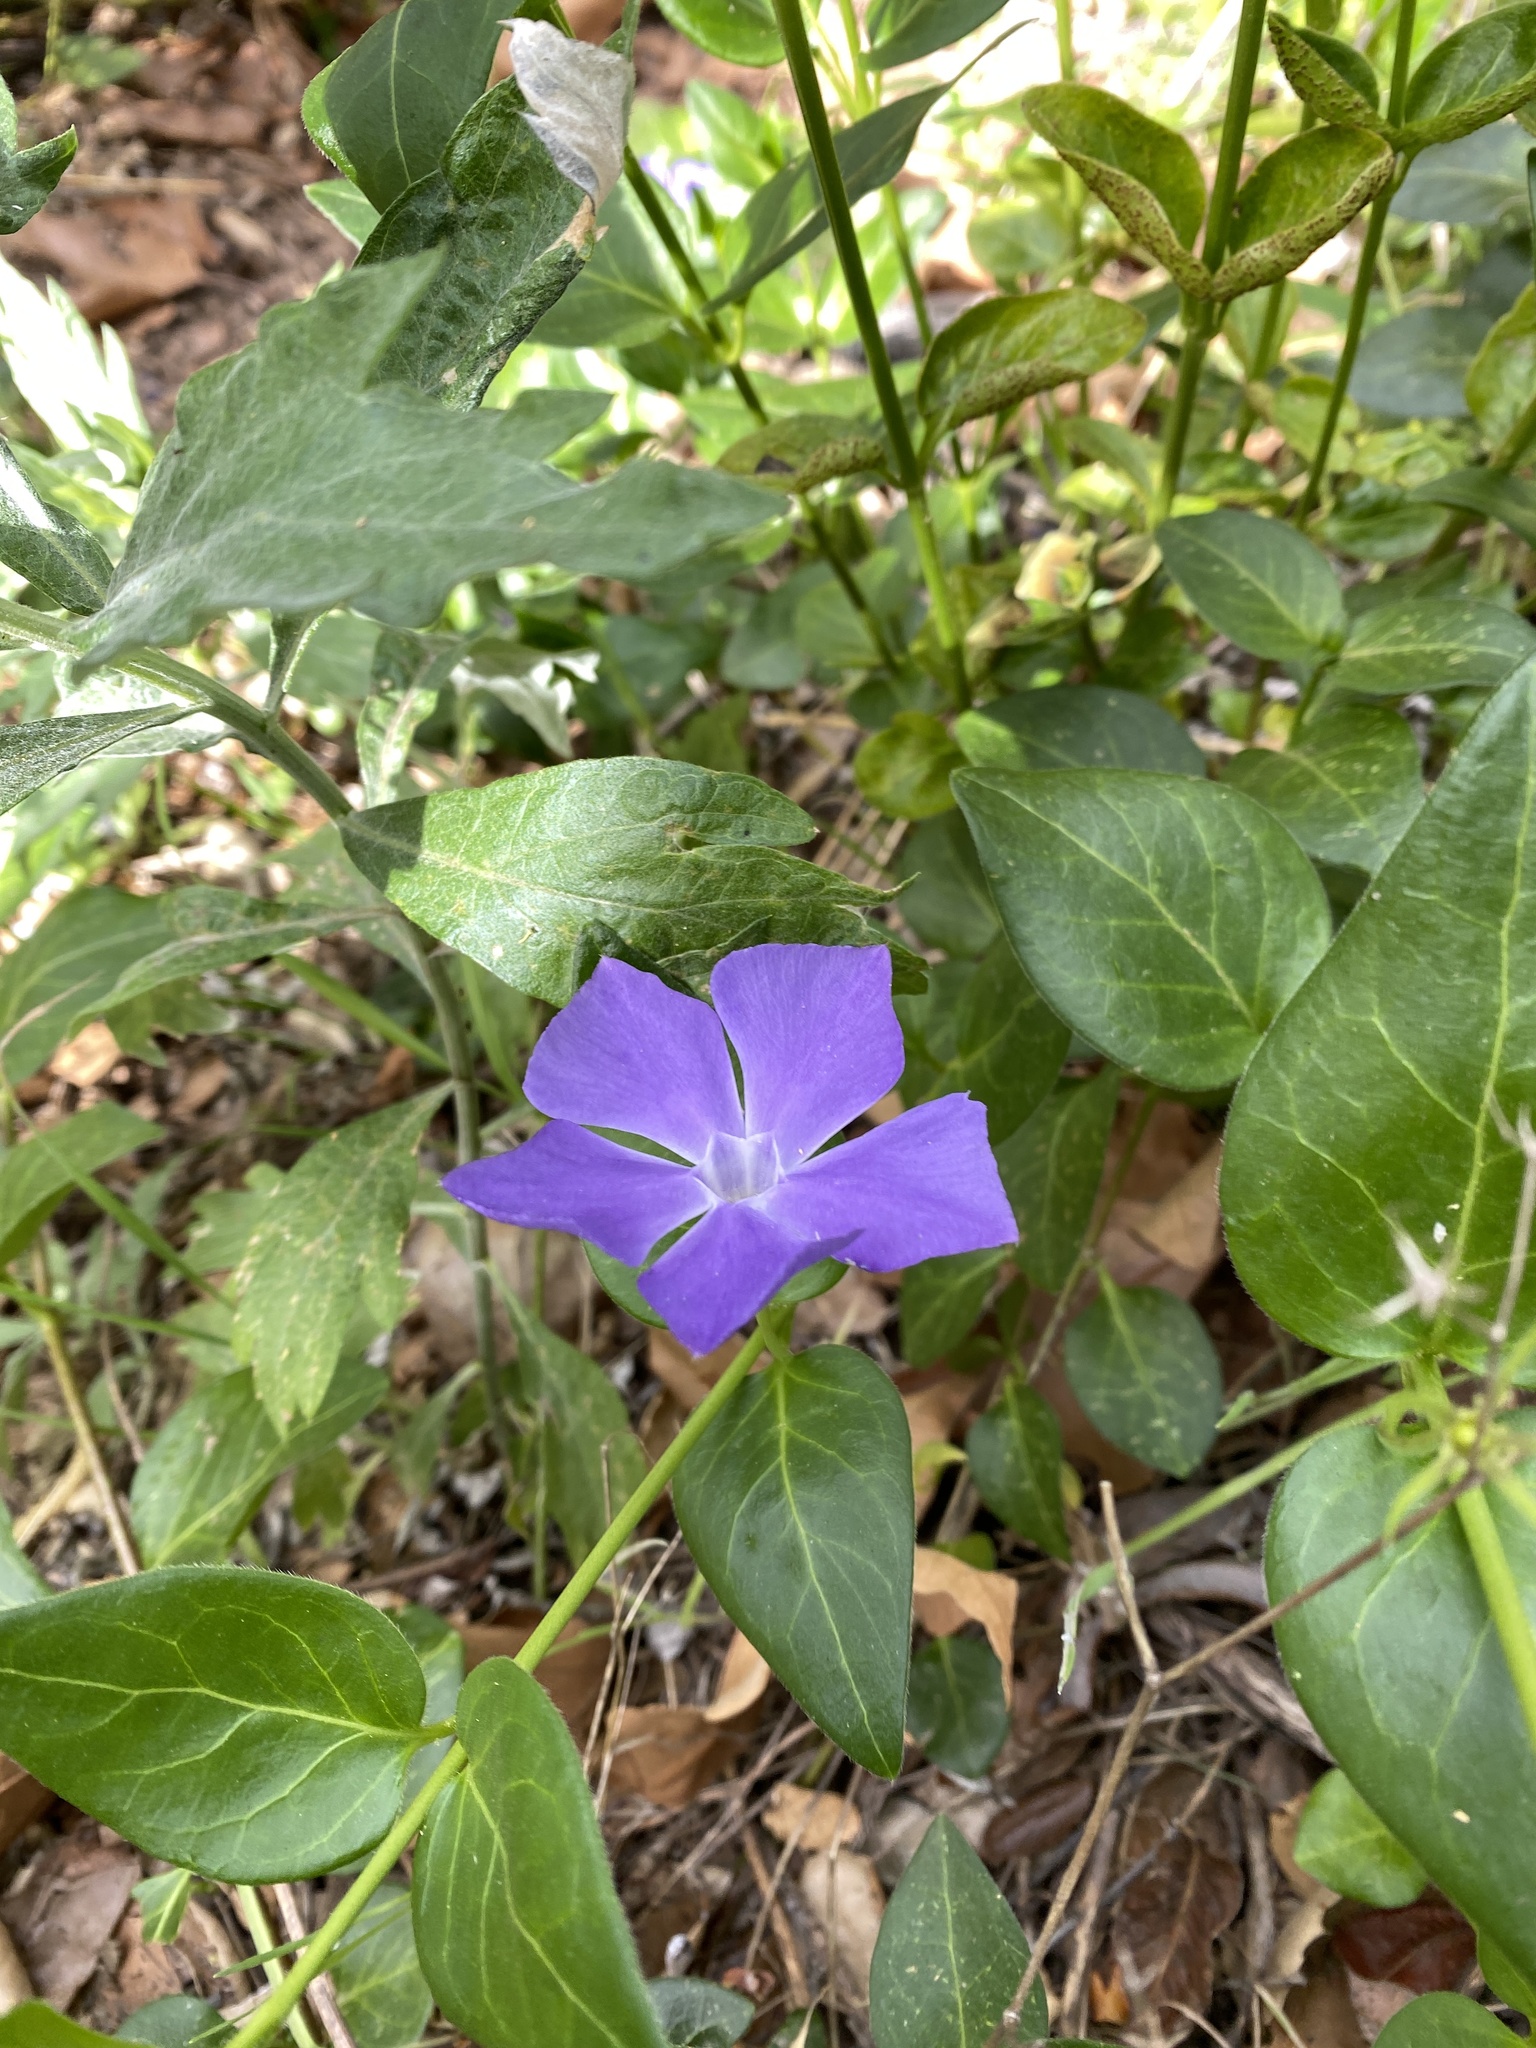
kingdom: Plantae
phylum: Tracheophyta
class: Magnoliopsida
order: Gentianales
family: Apocynaceae
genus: Vinca
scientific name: Vinca major
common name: Greater periwinkle
